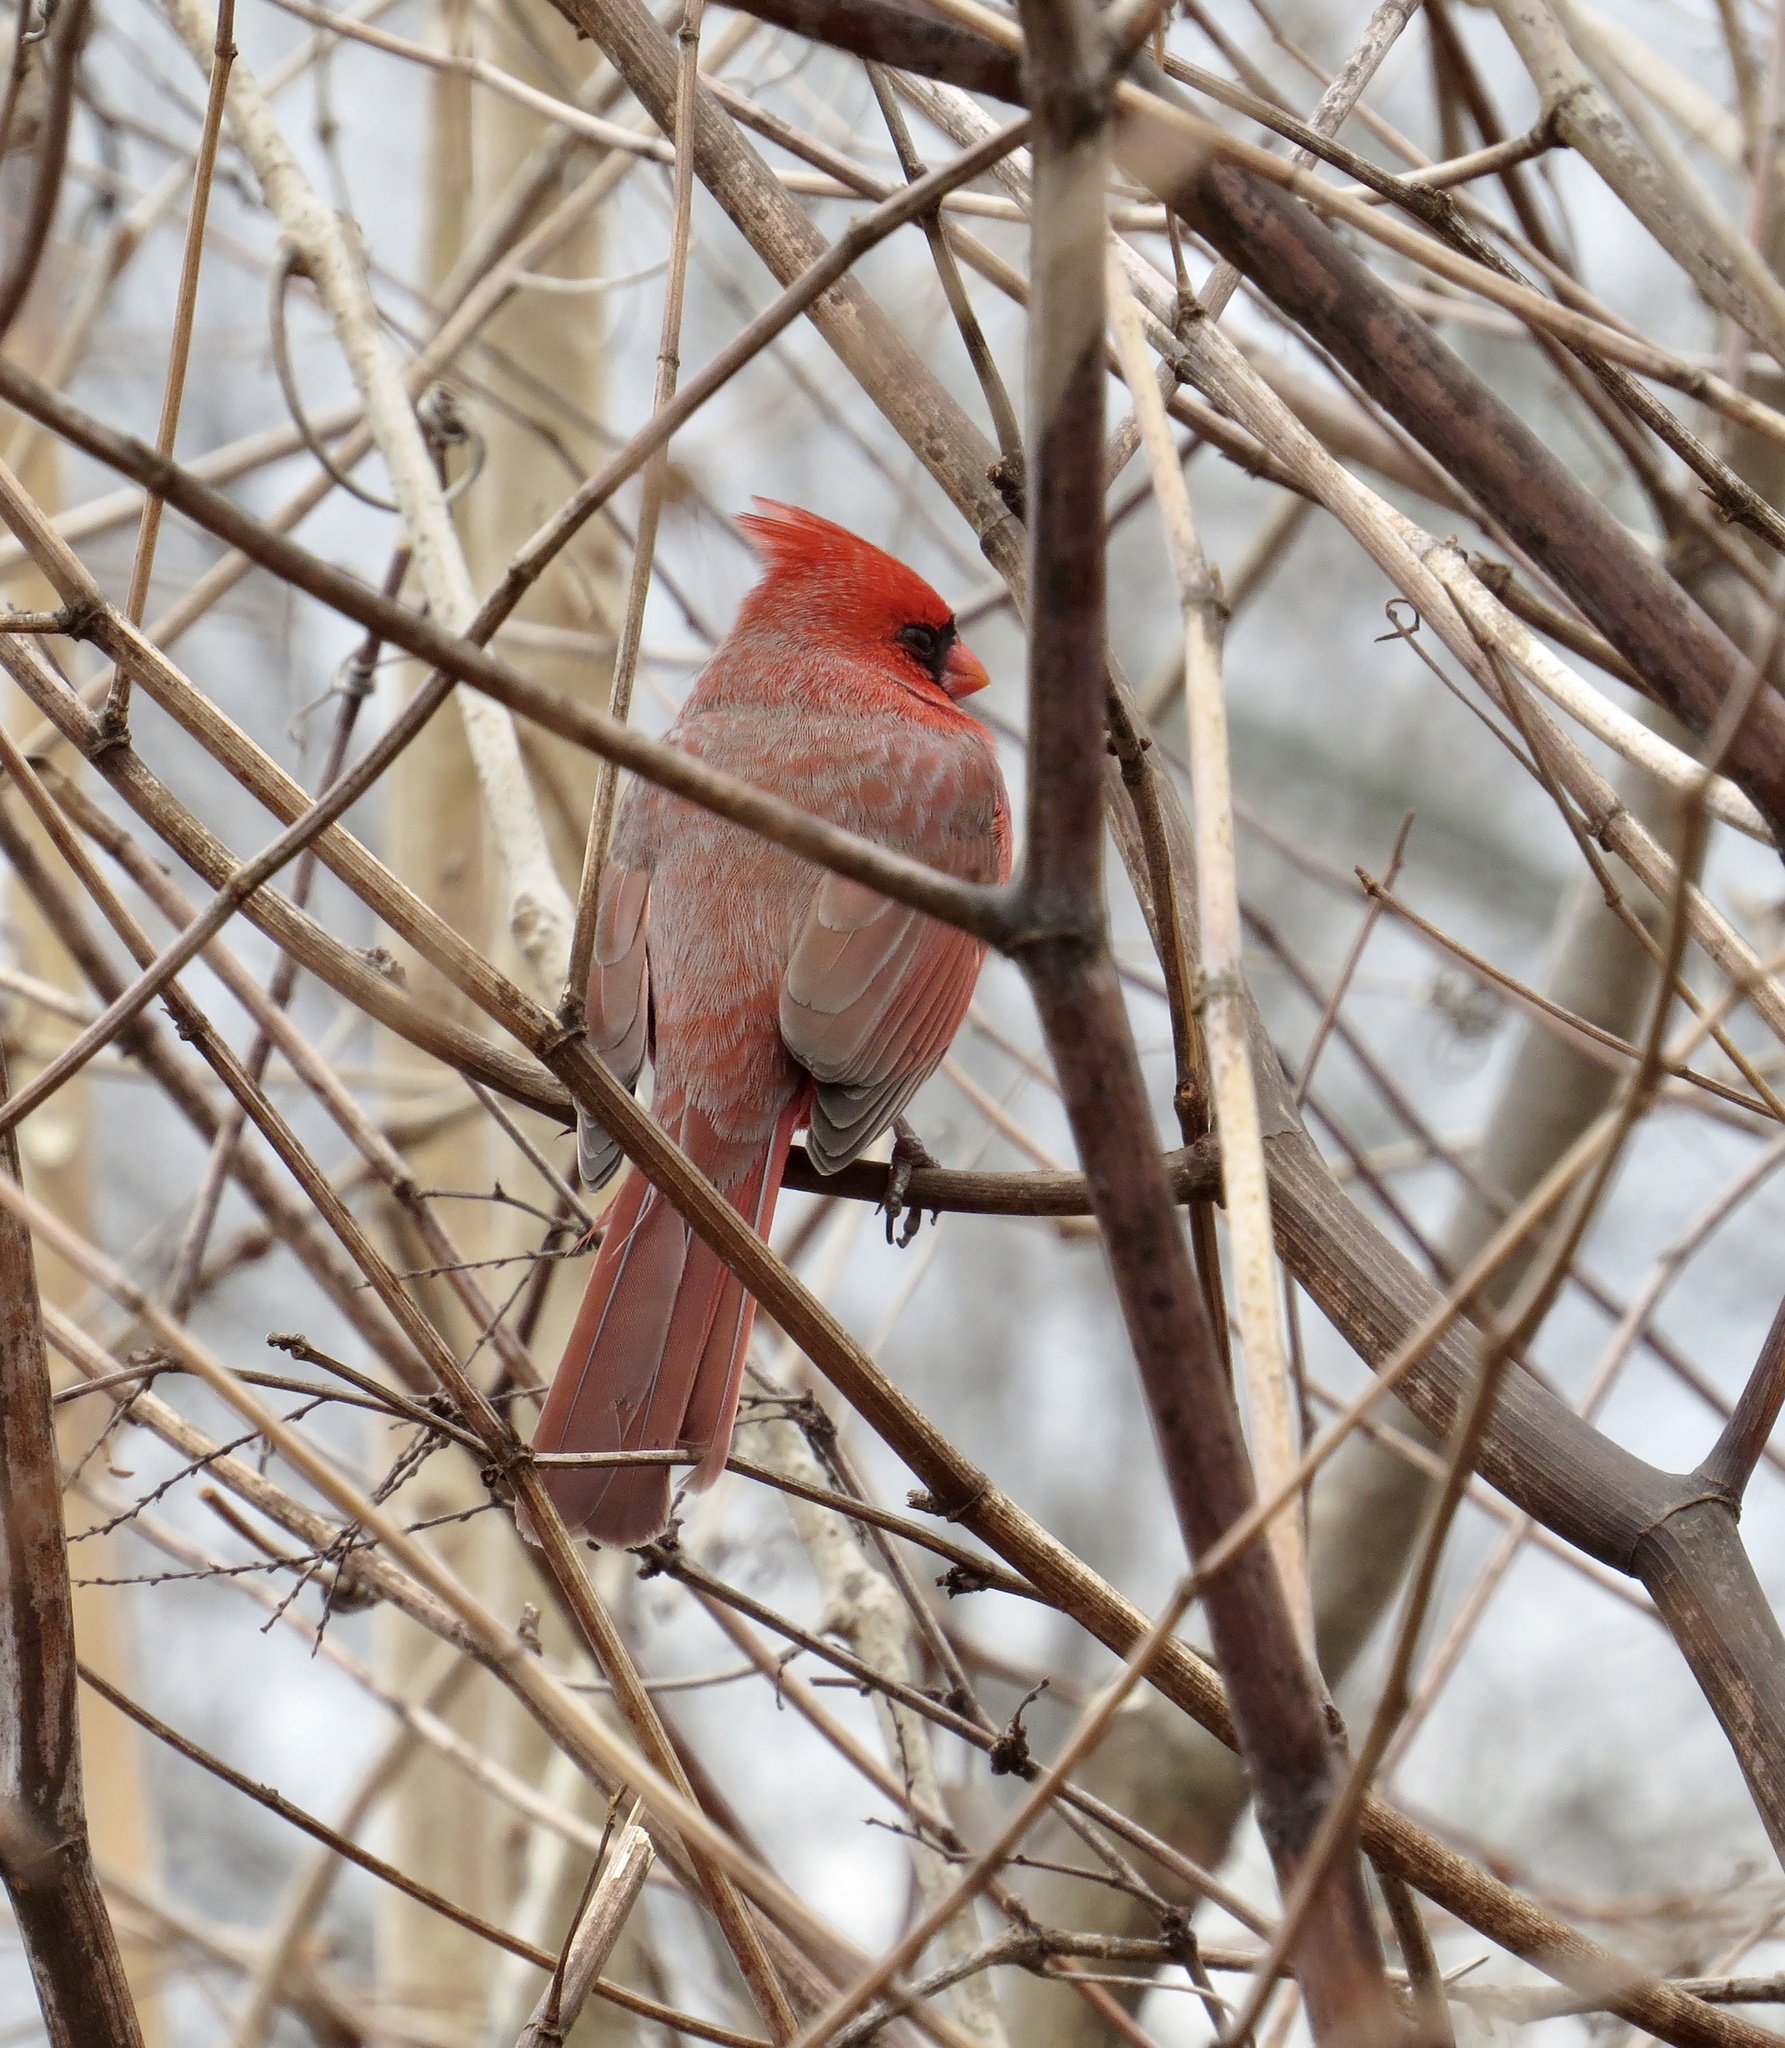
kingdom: Animalia
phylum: Chordata
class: Aves
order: Passeriformes
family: Cardinalidae
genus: Cardinalis
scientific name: Cardinalis cardinalis
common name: Northern cardinal
